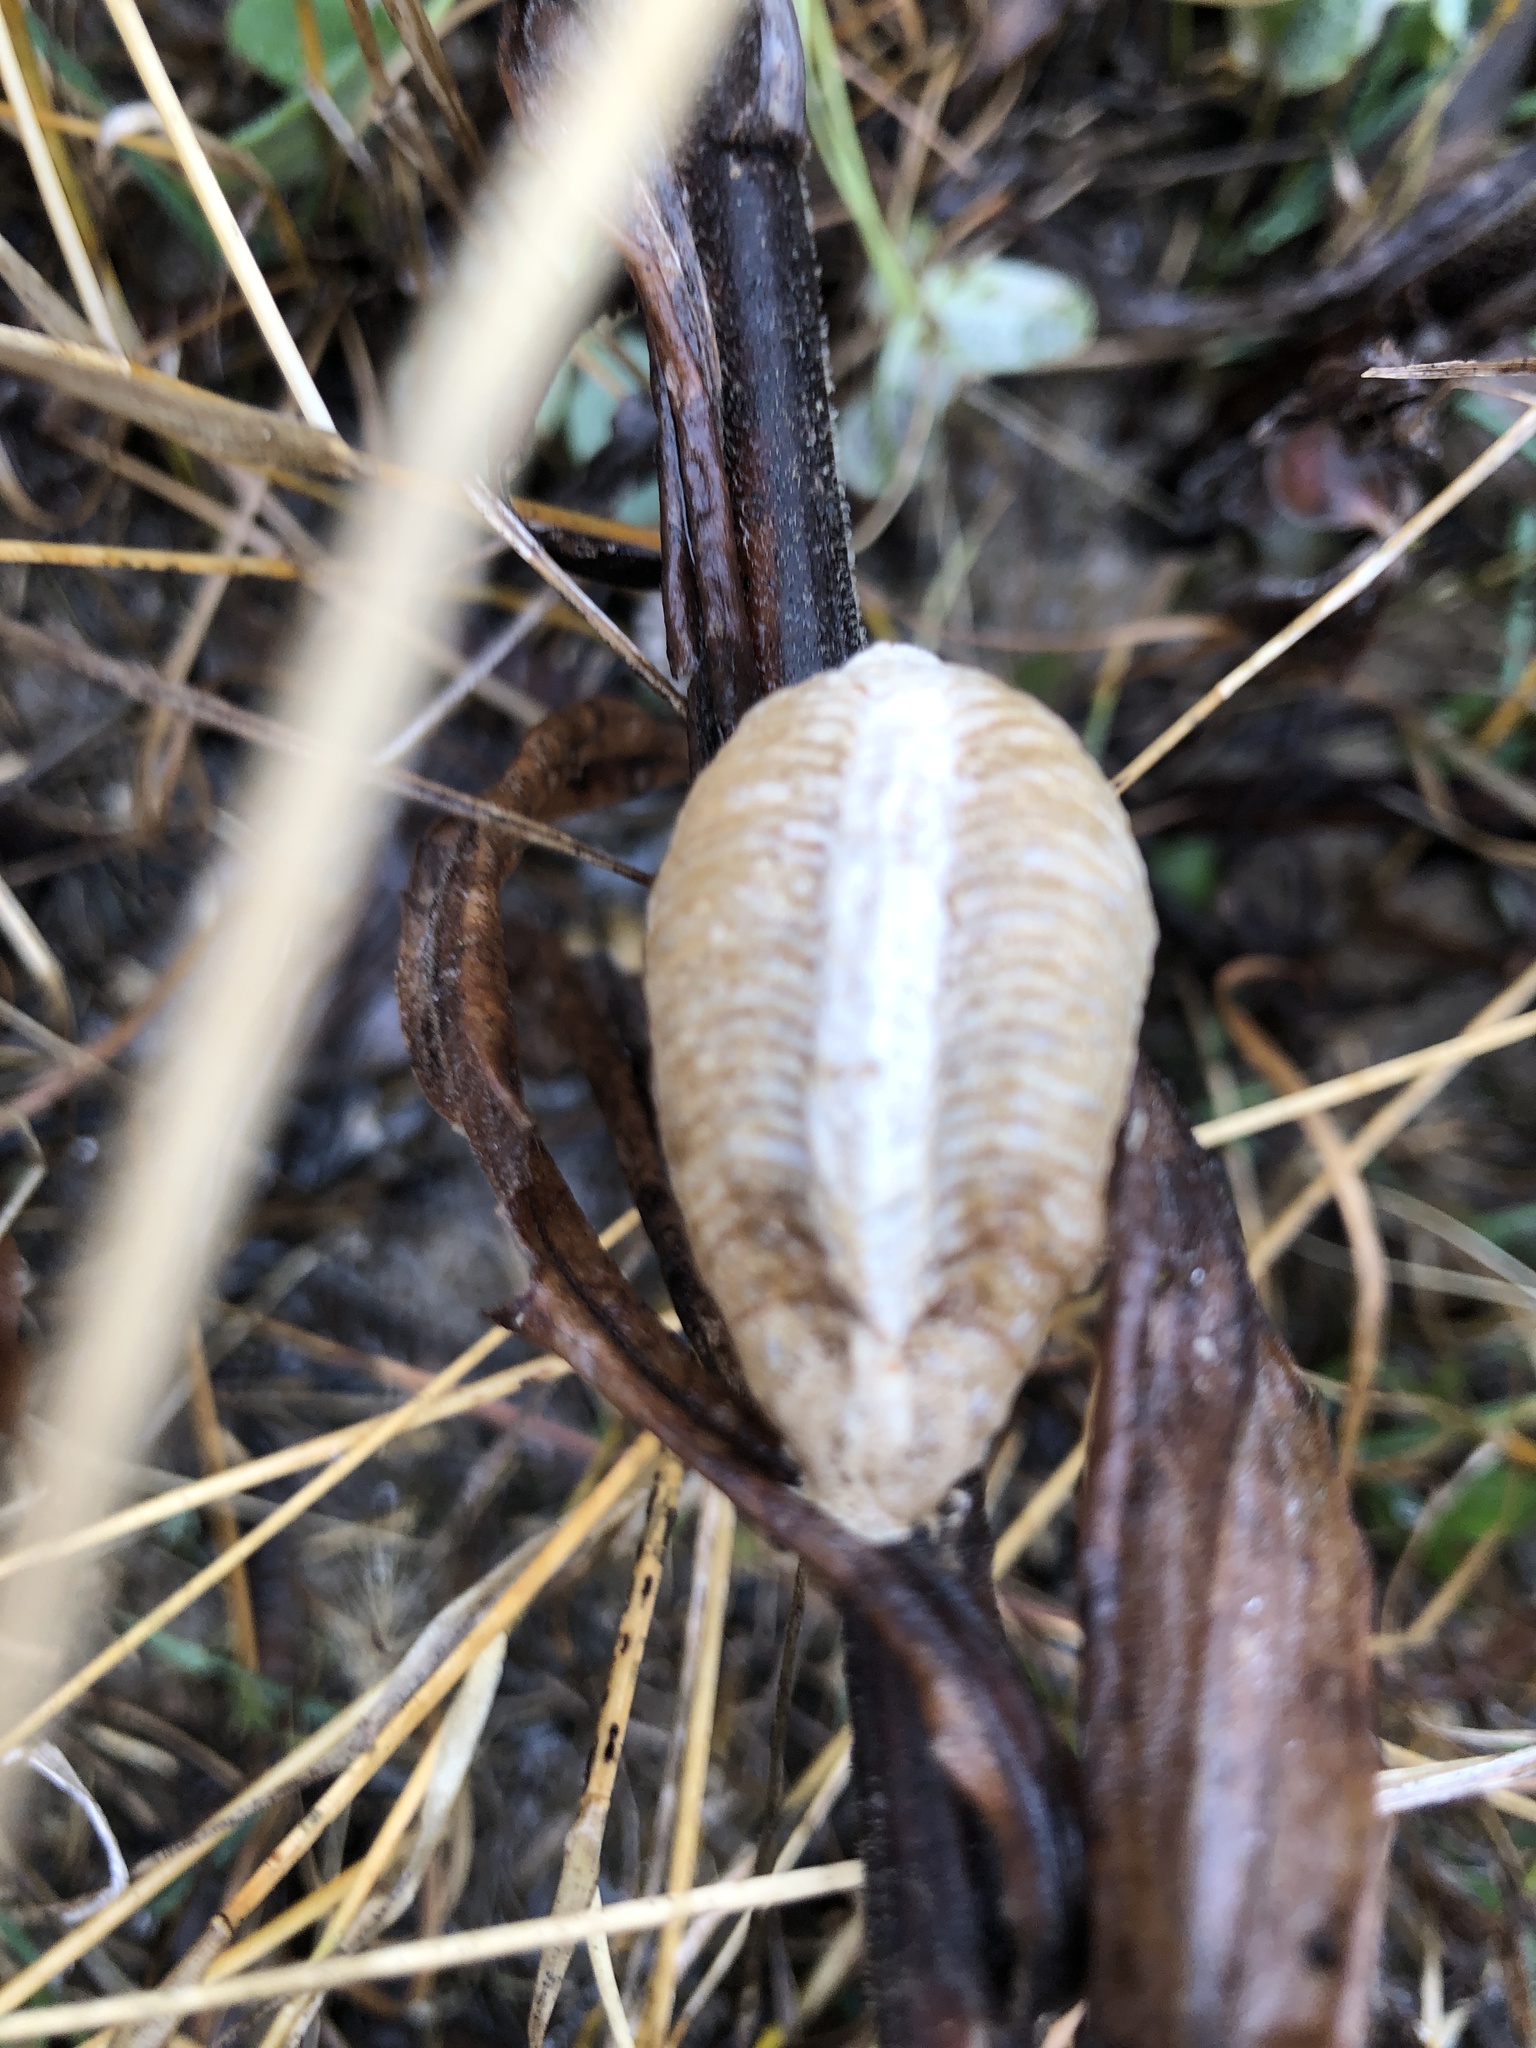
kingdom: Animalia
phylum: Arthropoda
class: Insecta
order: Mantodea
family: Mantidae
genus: Mantis
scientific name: Mantis religiosa
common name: Praying mantis
